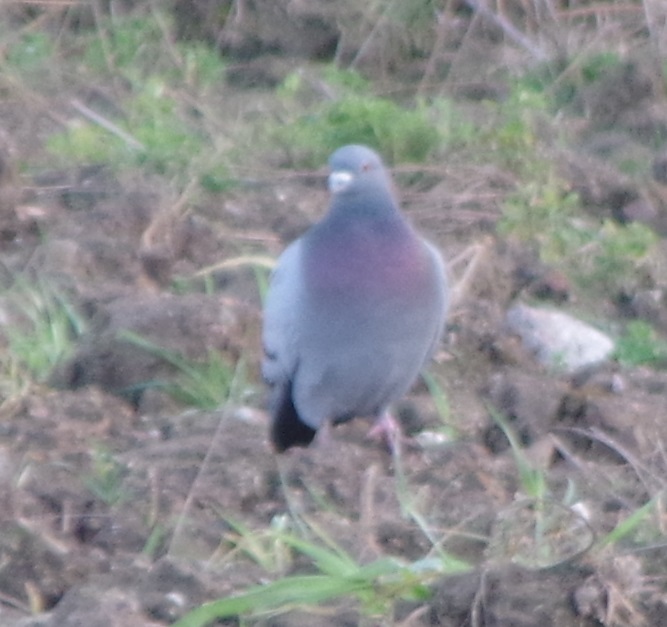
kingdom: Animalia
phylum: Chordata
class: Aves
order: Columbiformes
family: Columbidae
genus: Columba
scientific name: Columba livia
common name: Rock pigeon
